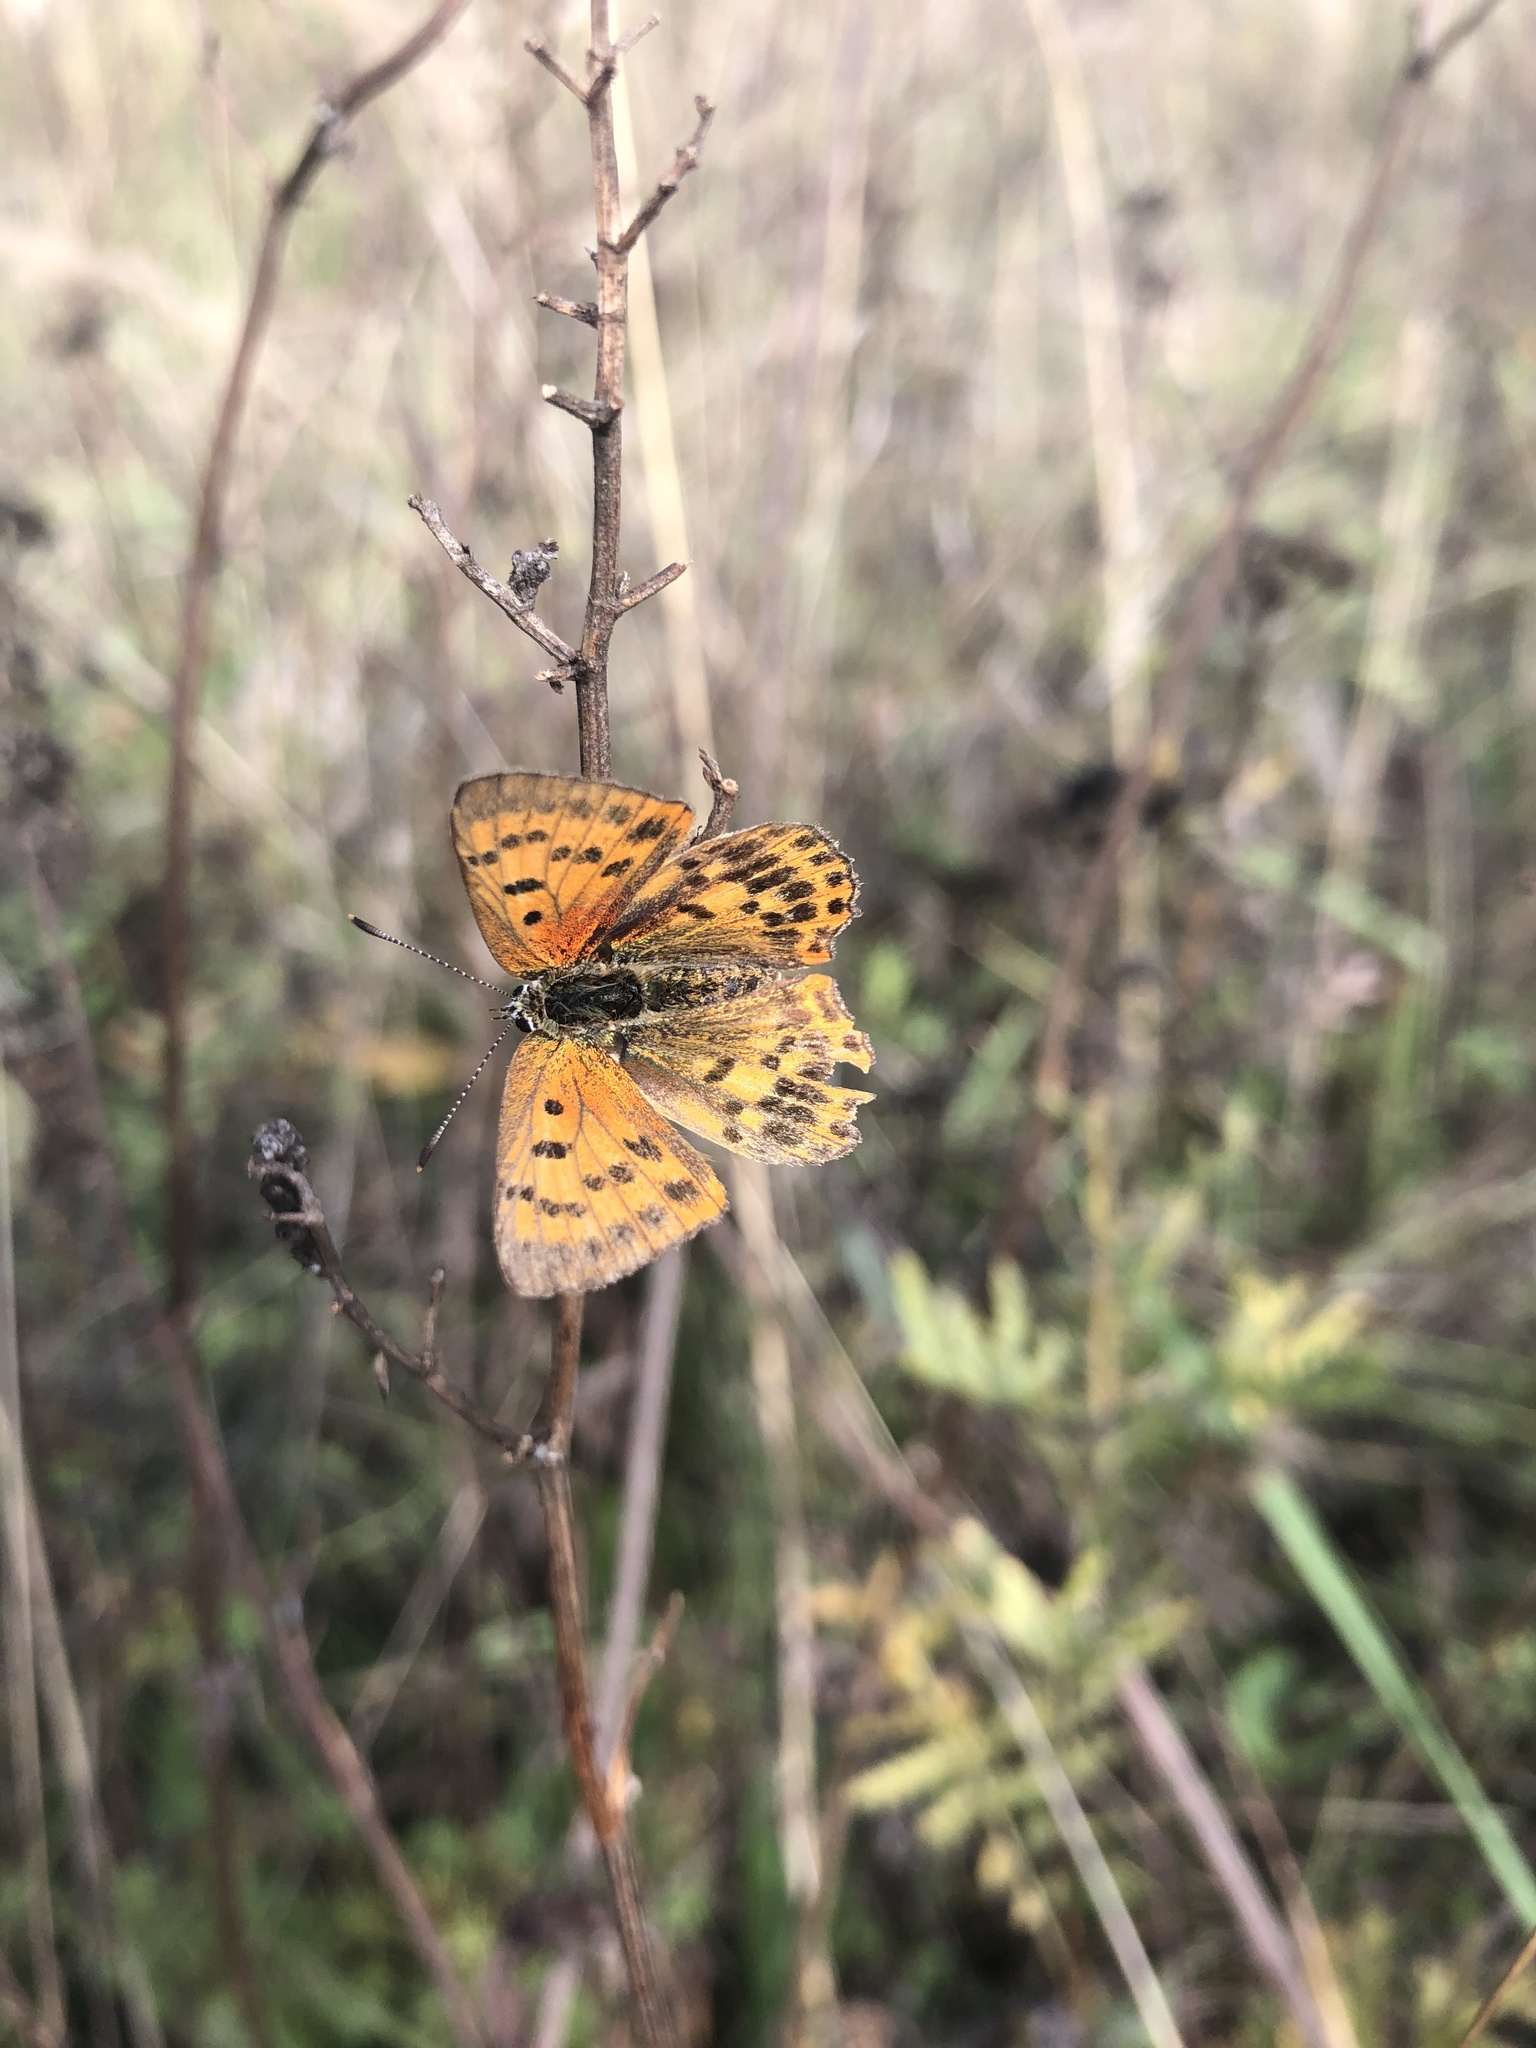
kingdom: Animalia
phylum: Arthropoda
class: Insecta
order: Lepidoptera
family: Lycaenidae
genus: Lycaena
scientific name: Lycaena virgaureae
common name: Scarce copper
